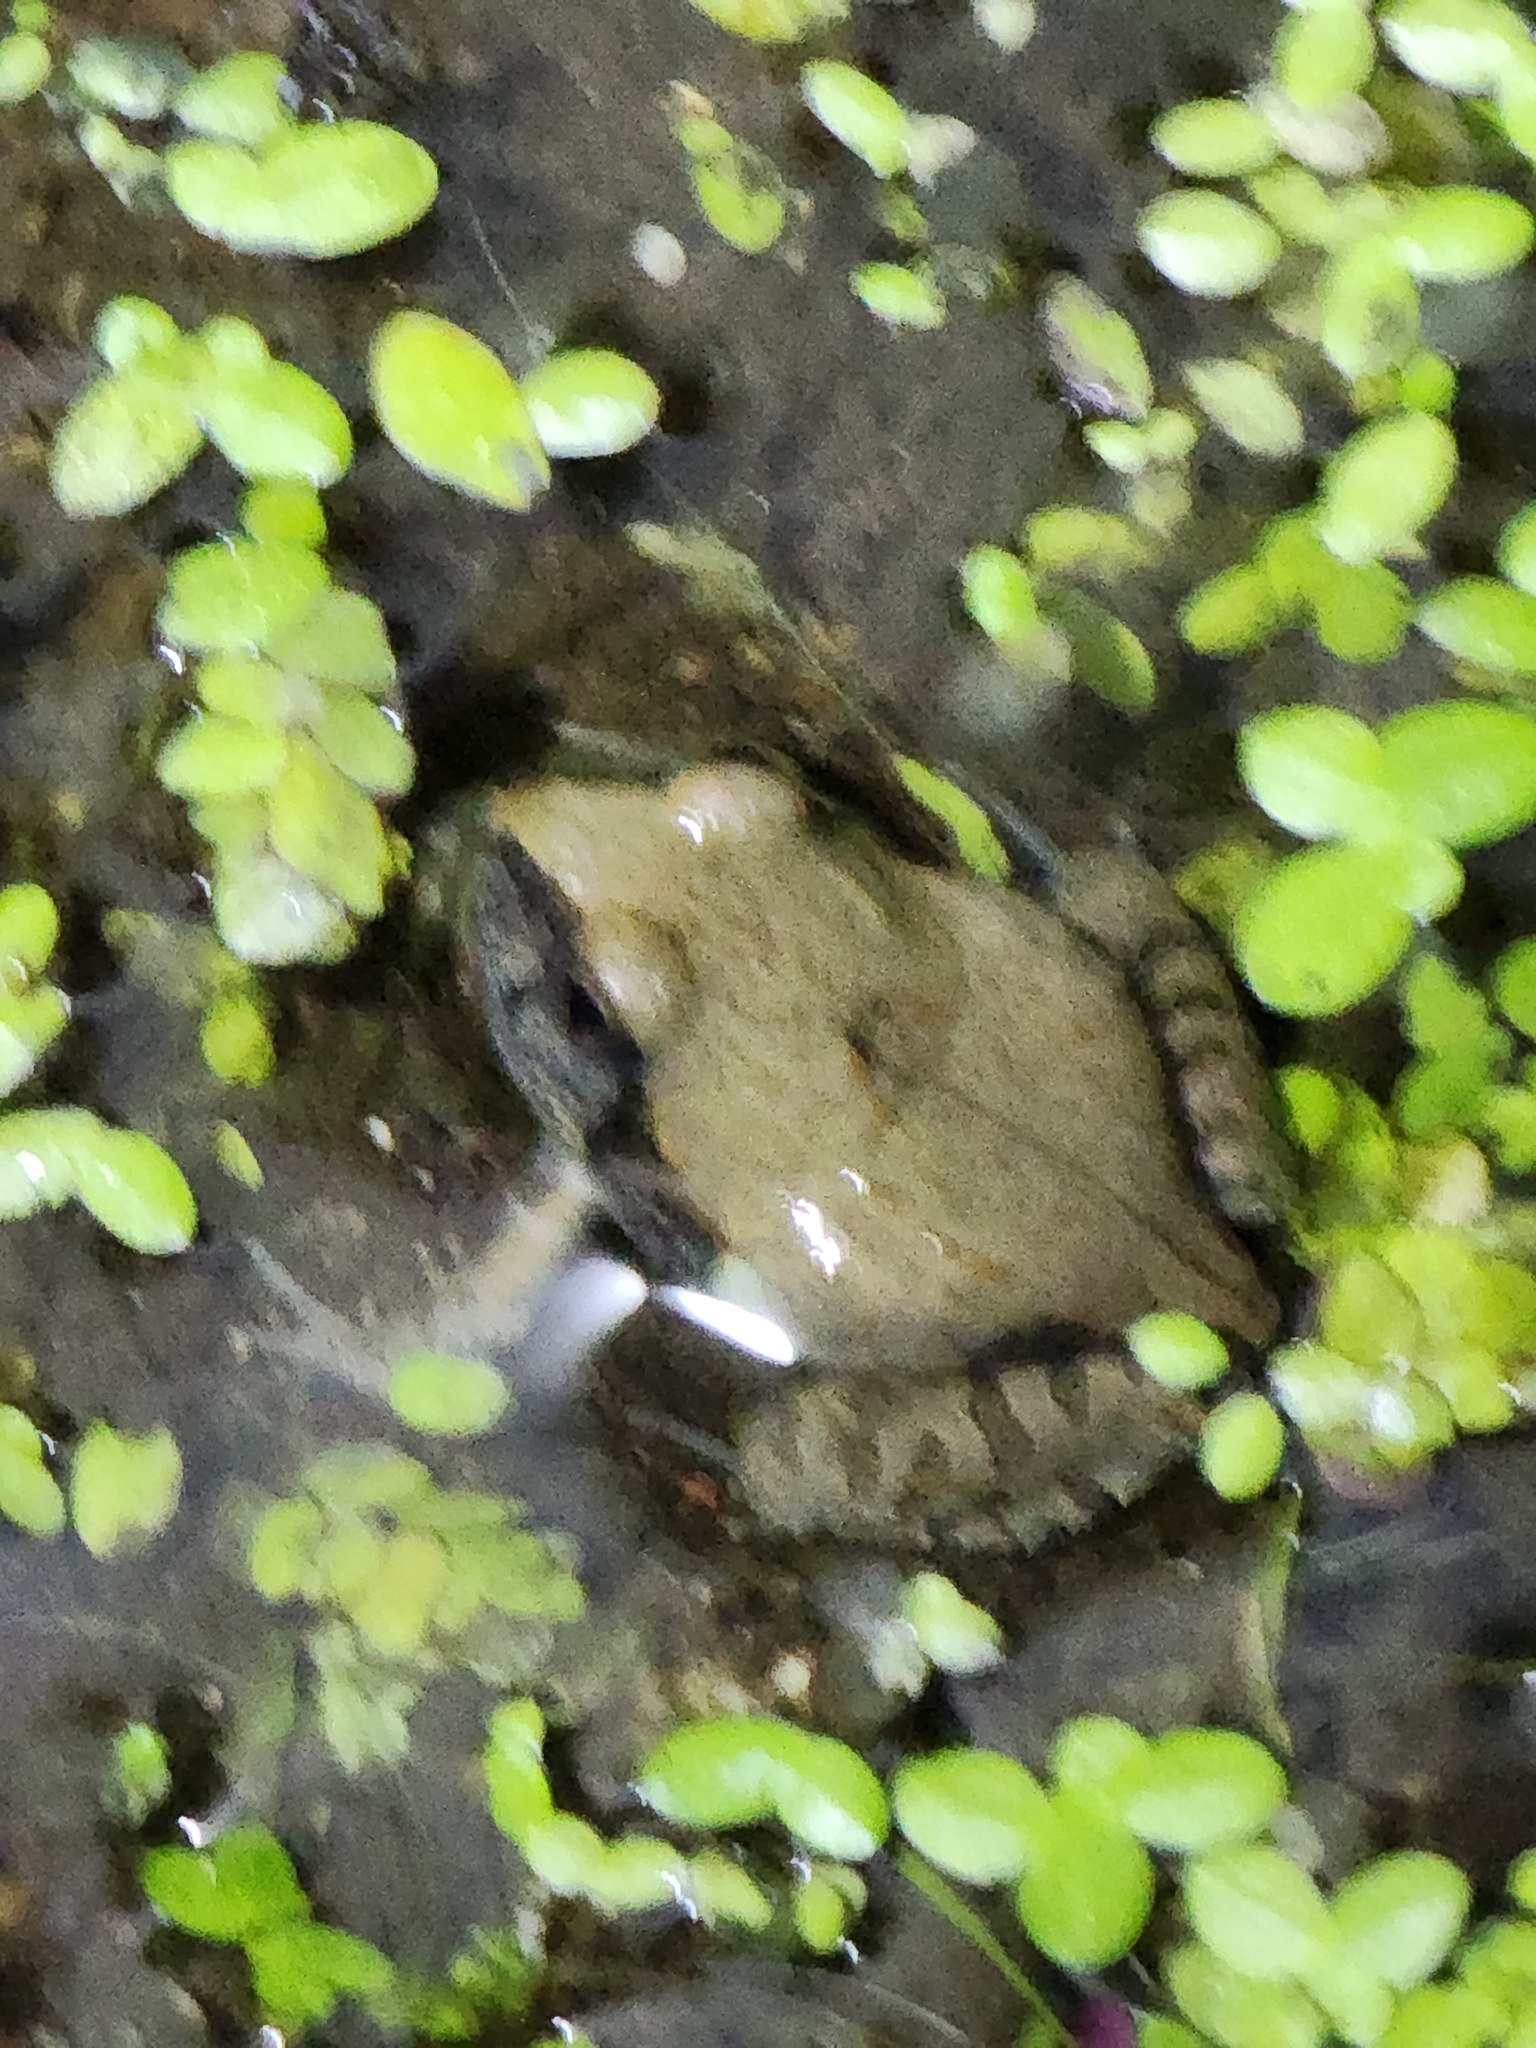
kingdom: Animalia
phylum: Chordata
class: Amphibia
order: Anura
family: Limnodynastidae
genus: Platyplectrum
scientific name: Platyplectrum ornatum
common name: Ornate burrowing frog
